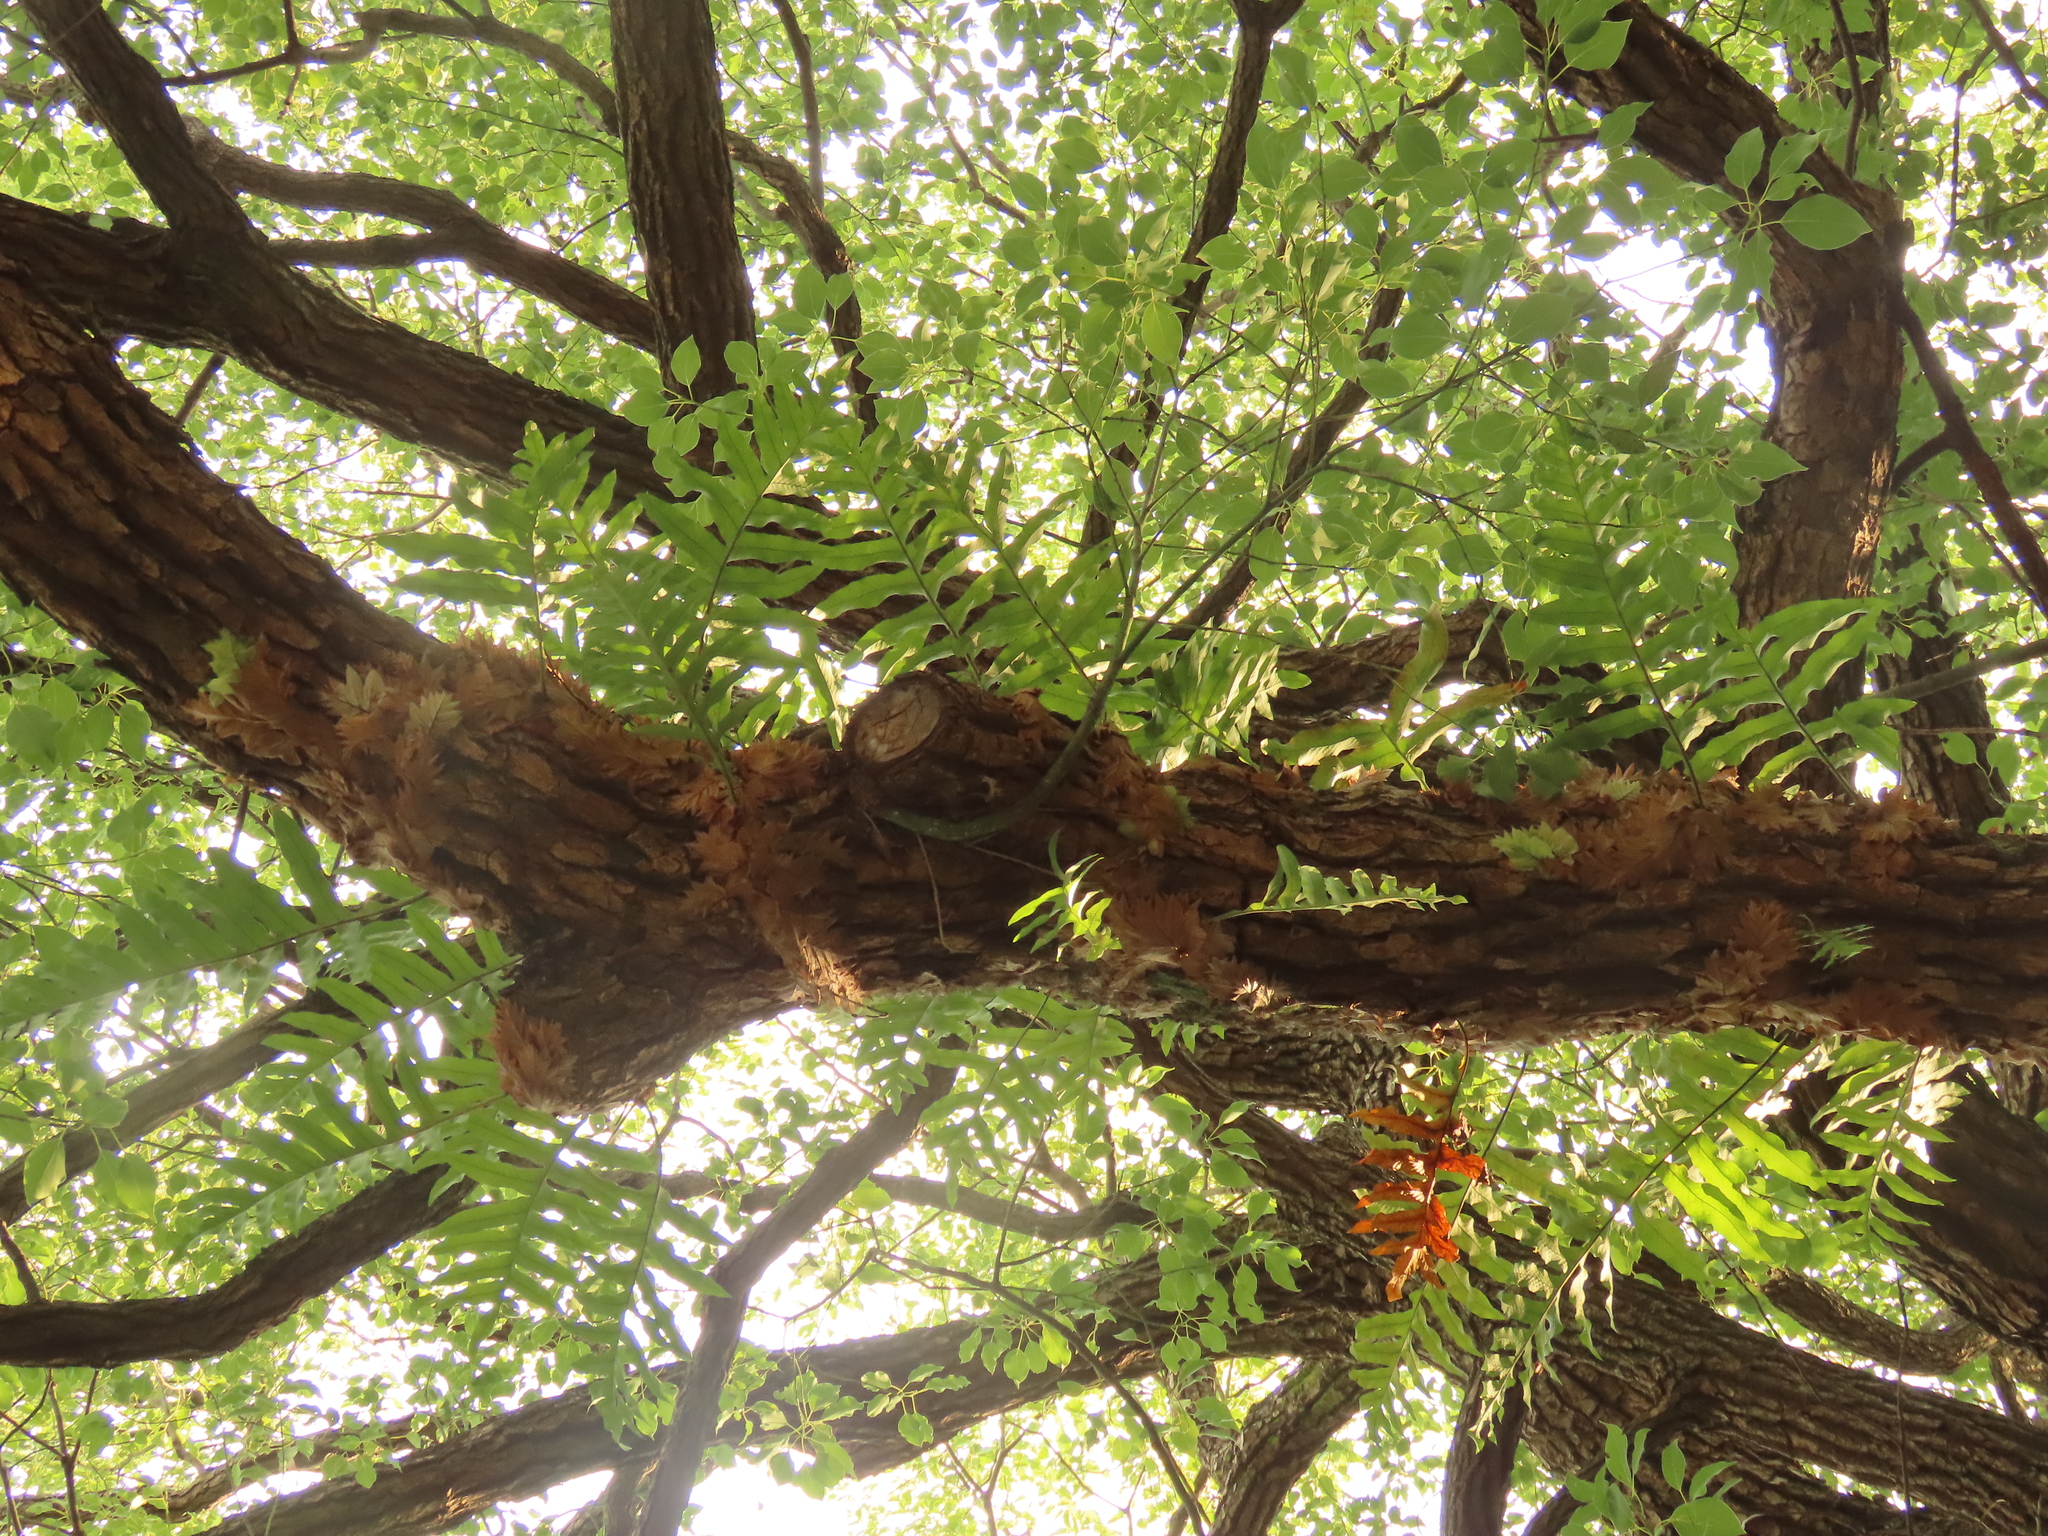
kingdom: Plantae
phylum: Tracheophyta
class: Polypodiopsida
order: Polypodiales
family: Polypodiaceae
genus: Drynaria
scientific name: Drynaria roosii
